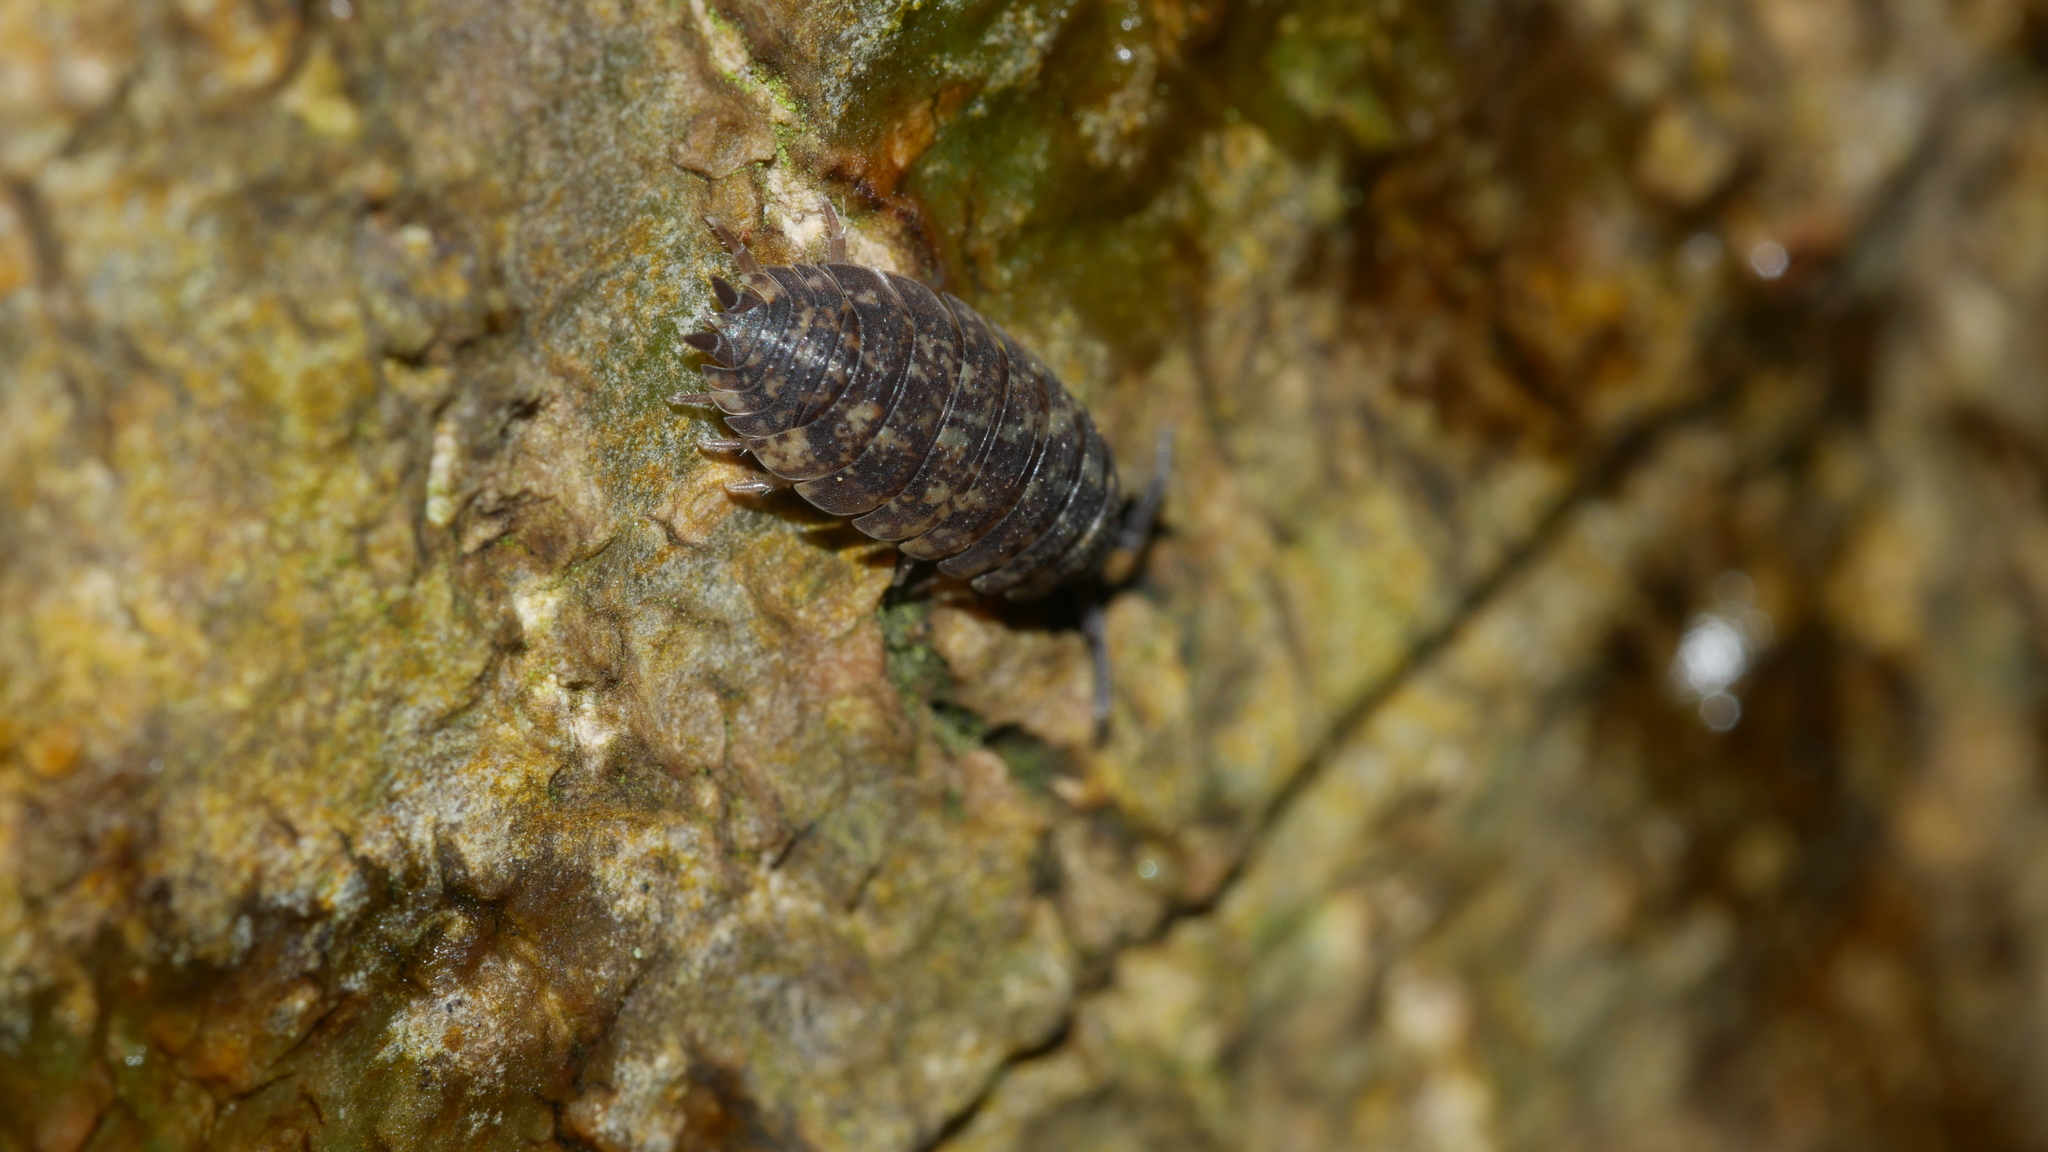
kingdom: Animalia
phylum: Arthropoda
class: Malacostraca
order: Isopoda
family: Porcellionidae
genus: Porcellio
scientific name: Porcellio scaber
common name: Common rough woodlouse
